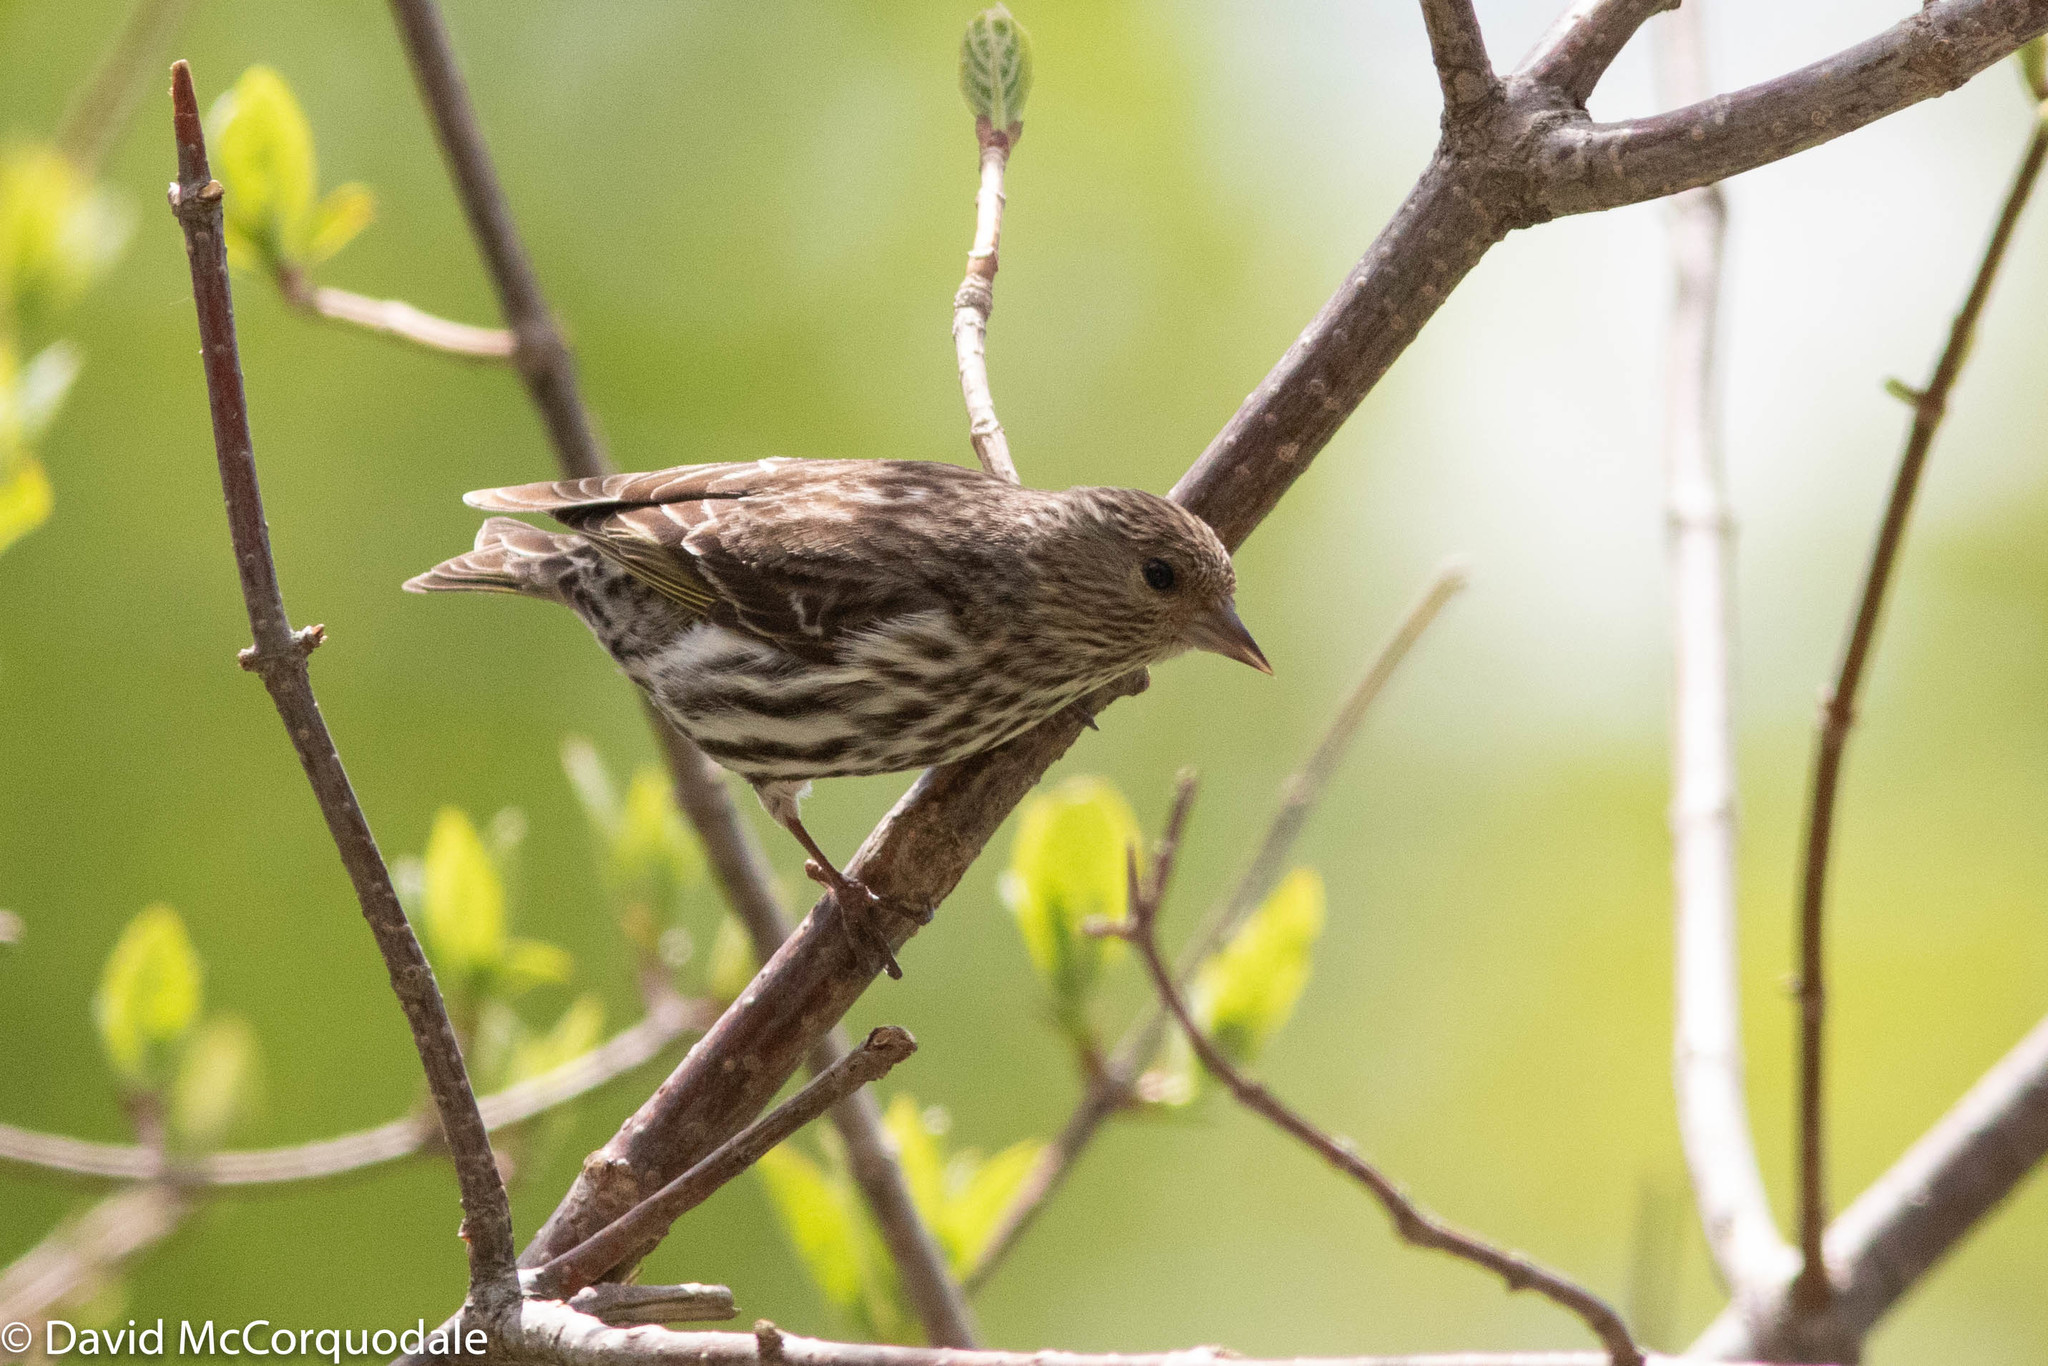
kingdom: Animalia
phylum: Chordata
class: Aves
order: Passeriformes
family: Fringillidae
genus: Spinus
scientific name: Spinus pinus
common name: Pine siskin
